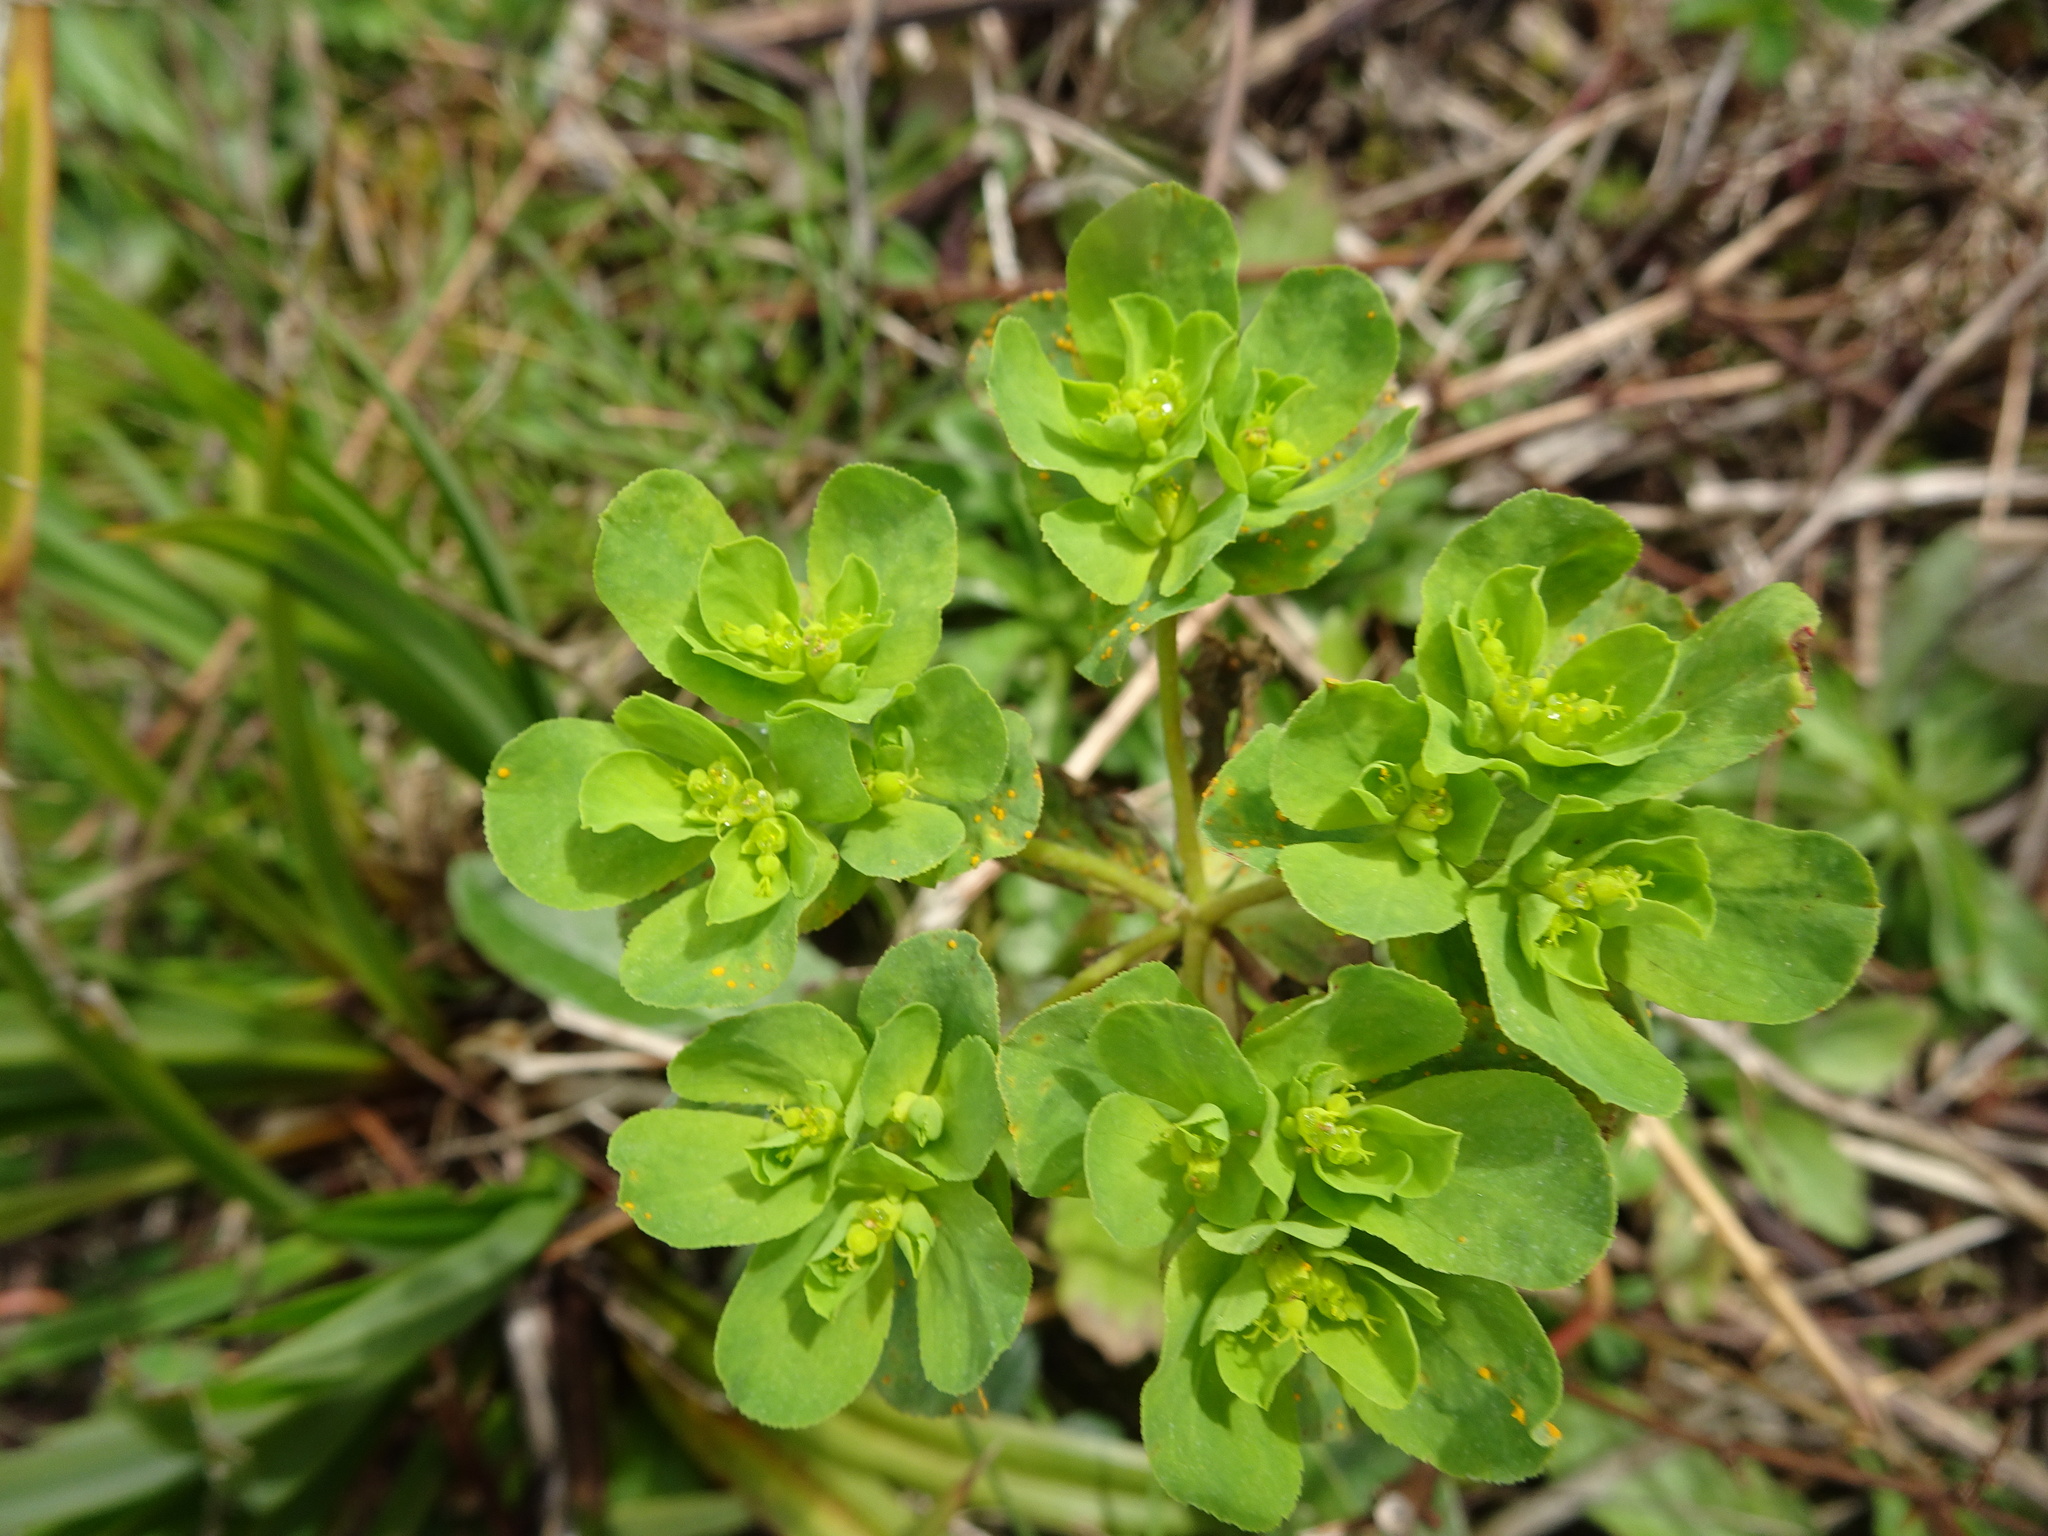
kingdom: Plantae
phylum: Tracheophyta
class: Magnoliopsida
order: Malpighiales
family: Euphorbiaceae
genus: Euphorbia
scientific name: Euphorbia helioscopia
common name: Sun spurge
